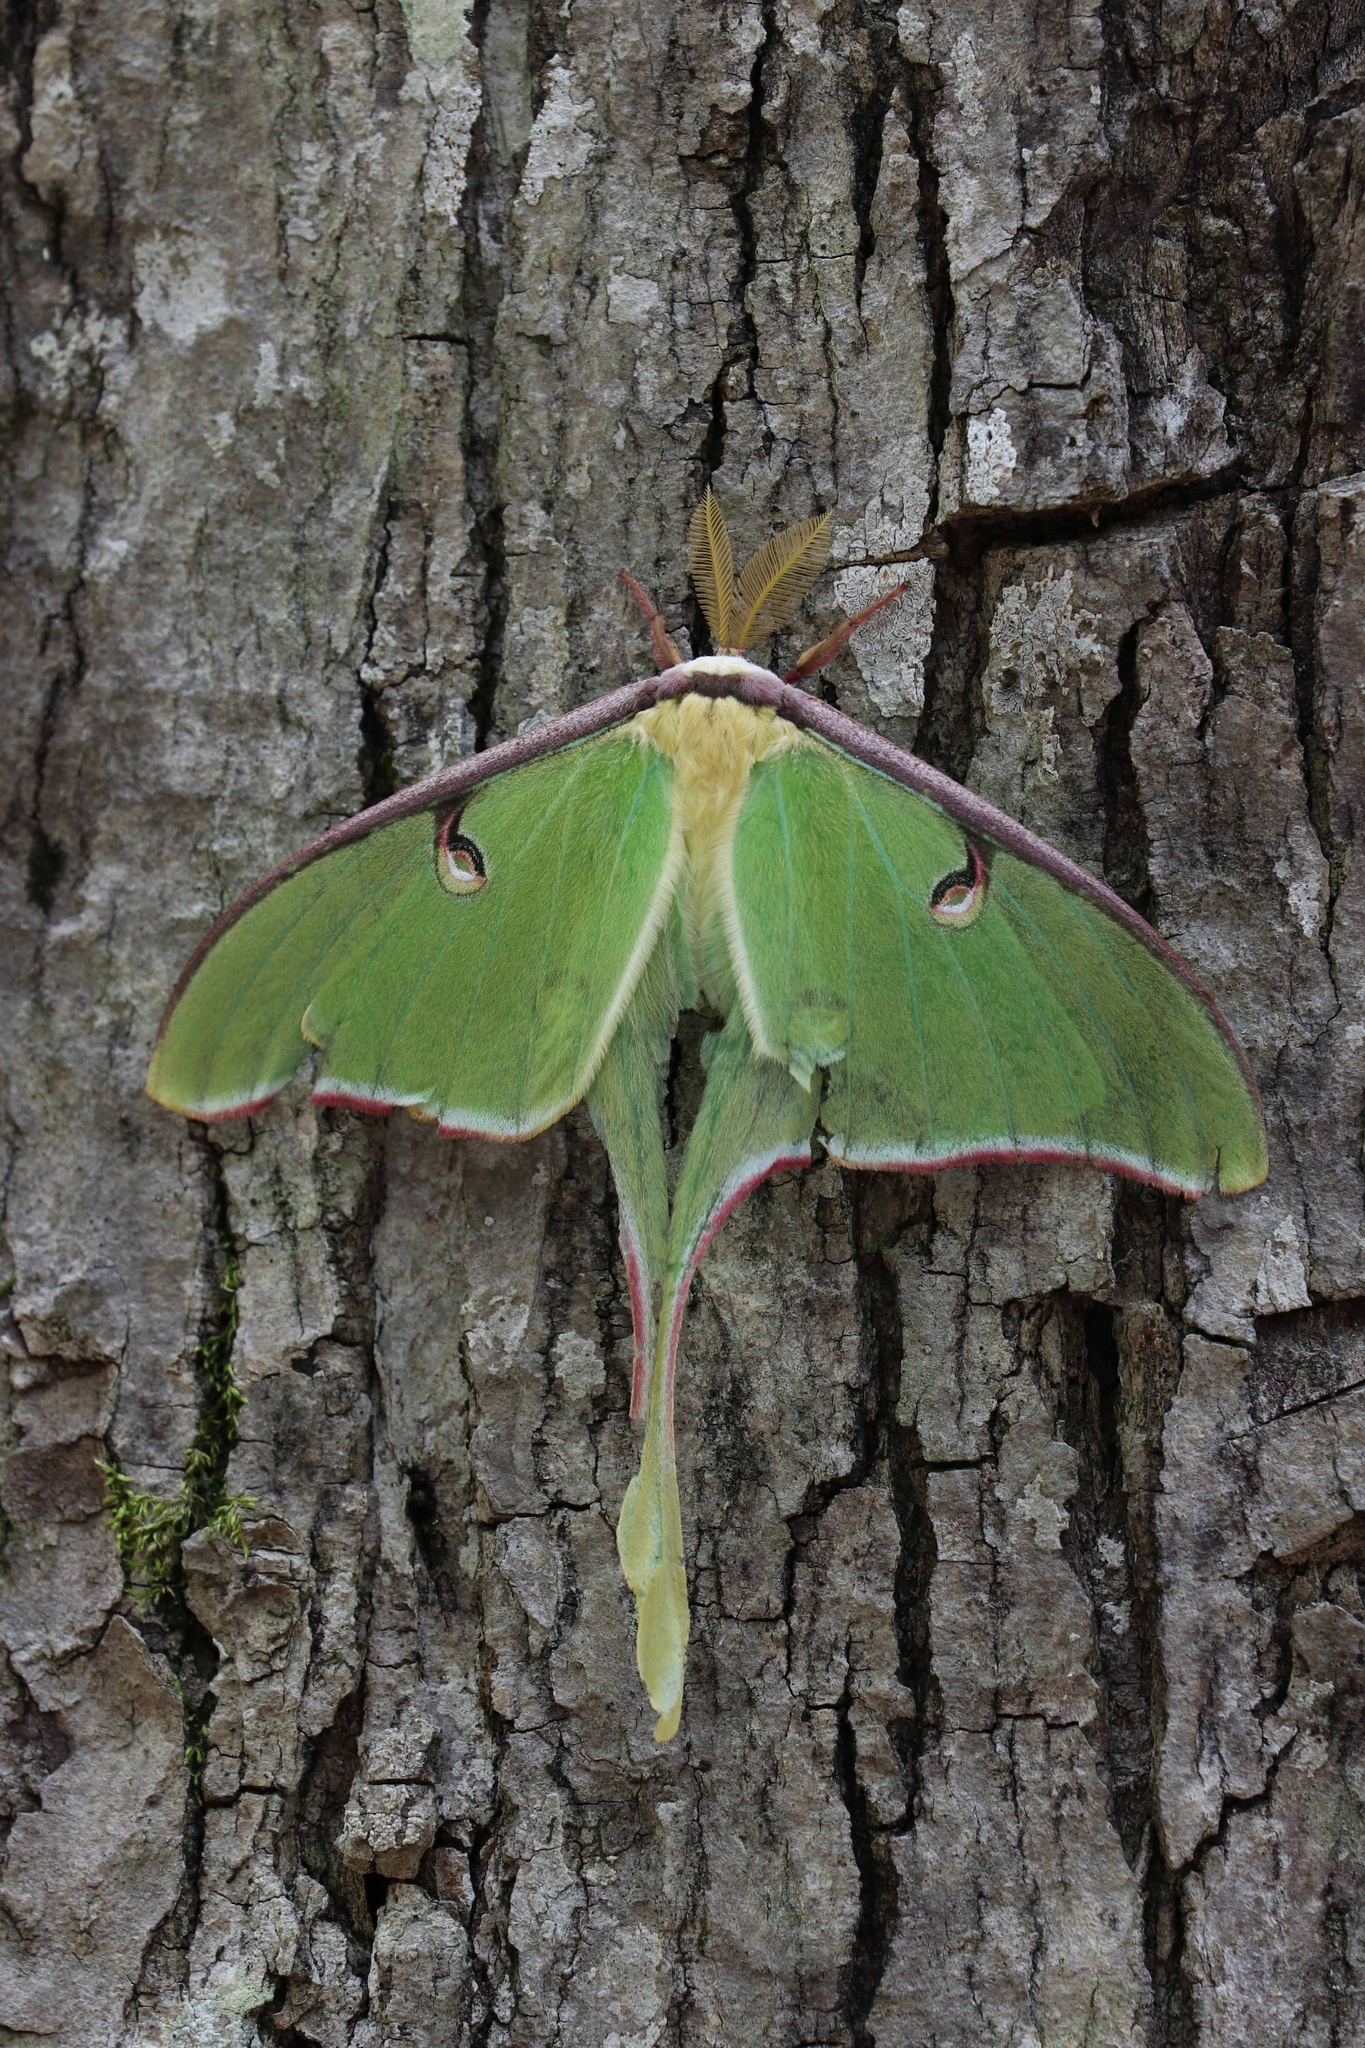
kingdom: Animalia
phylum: Arthropoda
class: Insecta
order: Lepidoptera
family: Saturniidae
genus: Actias
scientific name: Actias luna
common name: Luna moth
